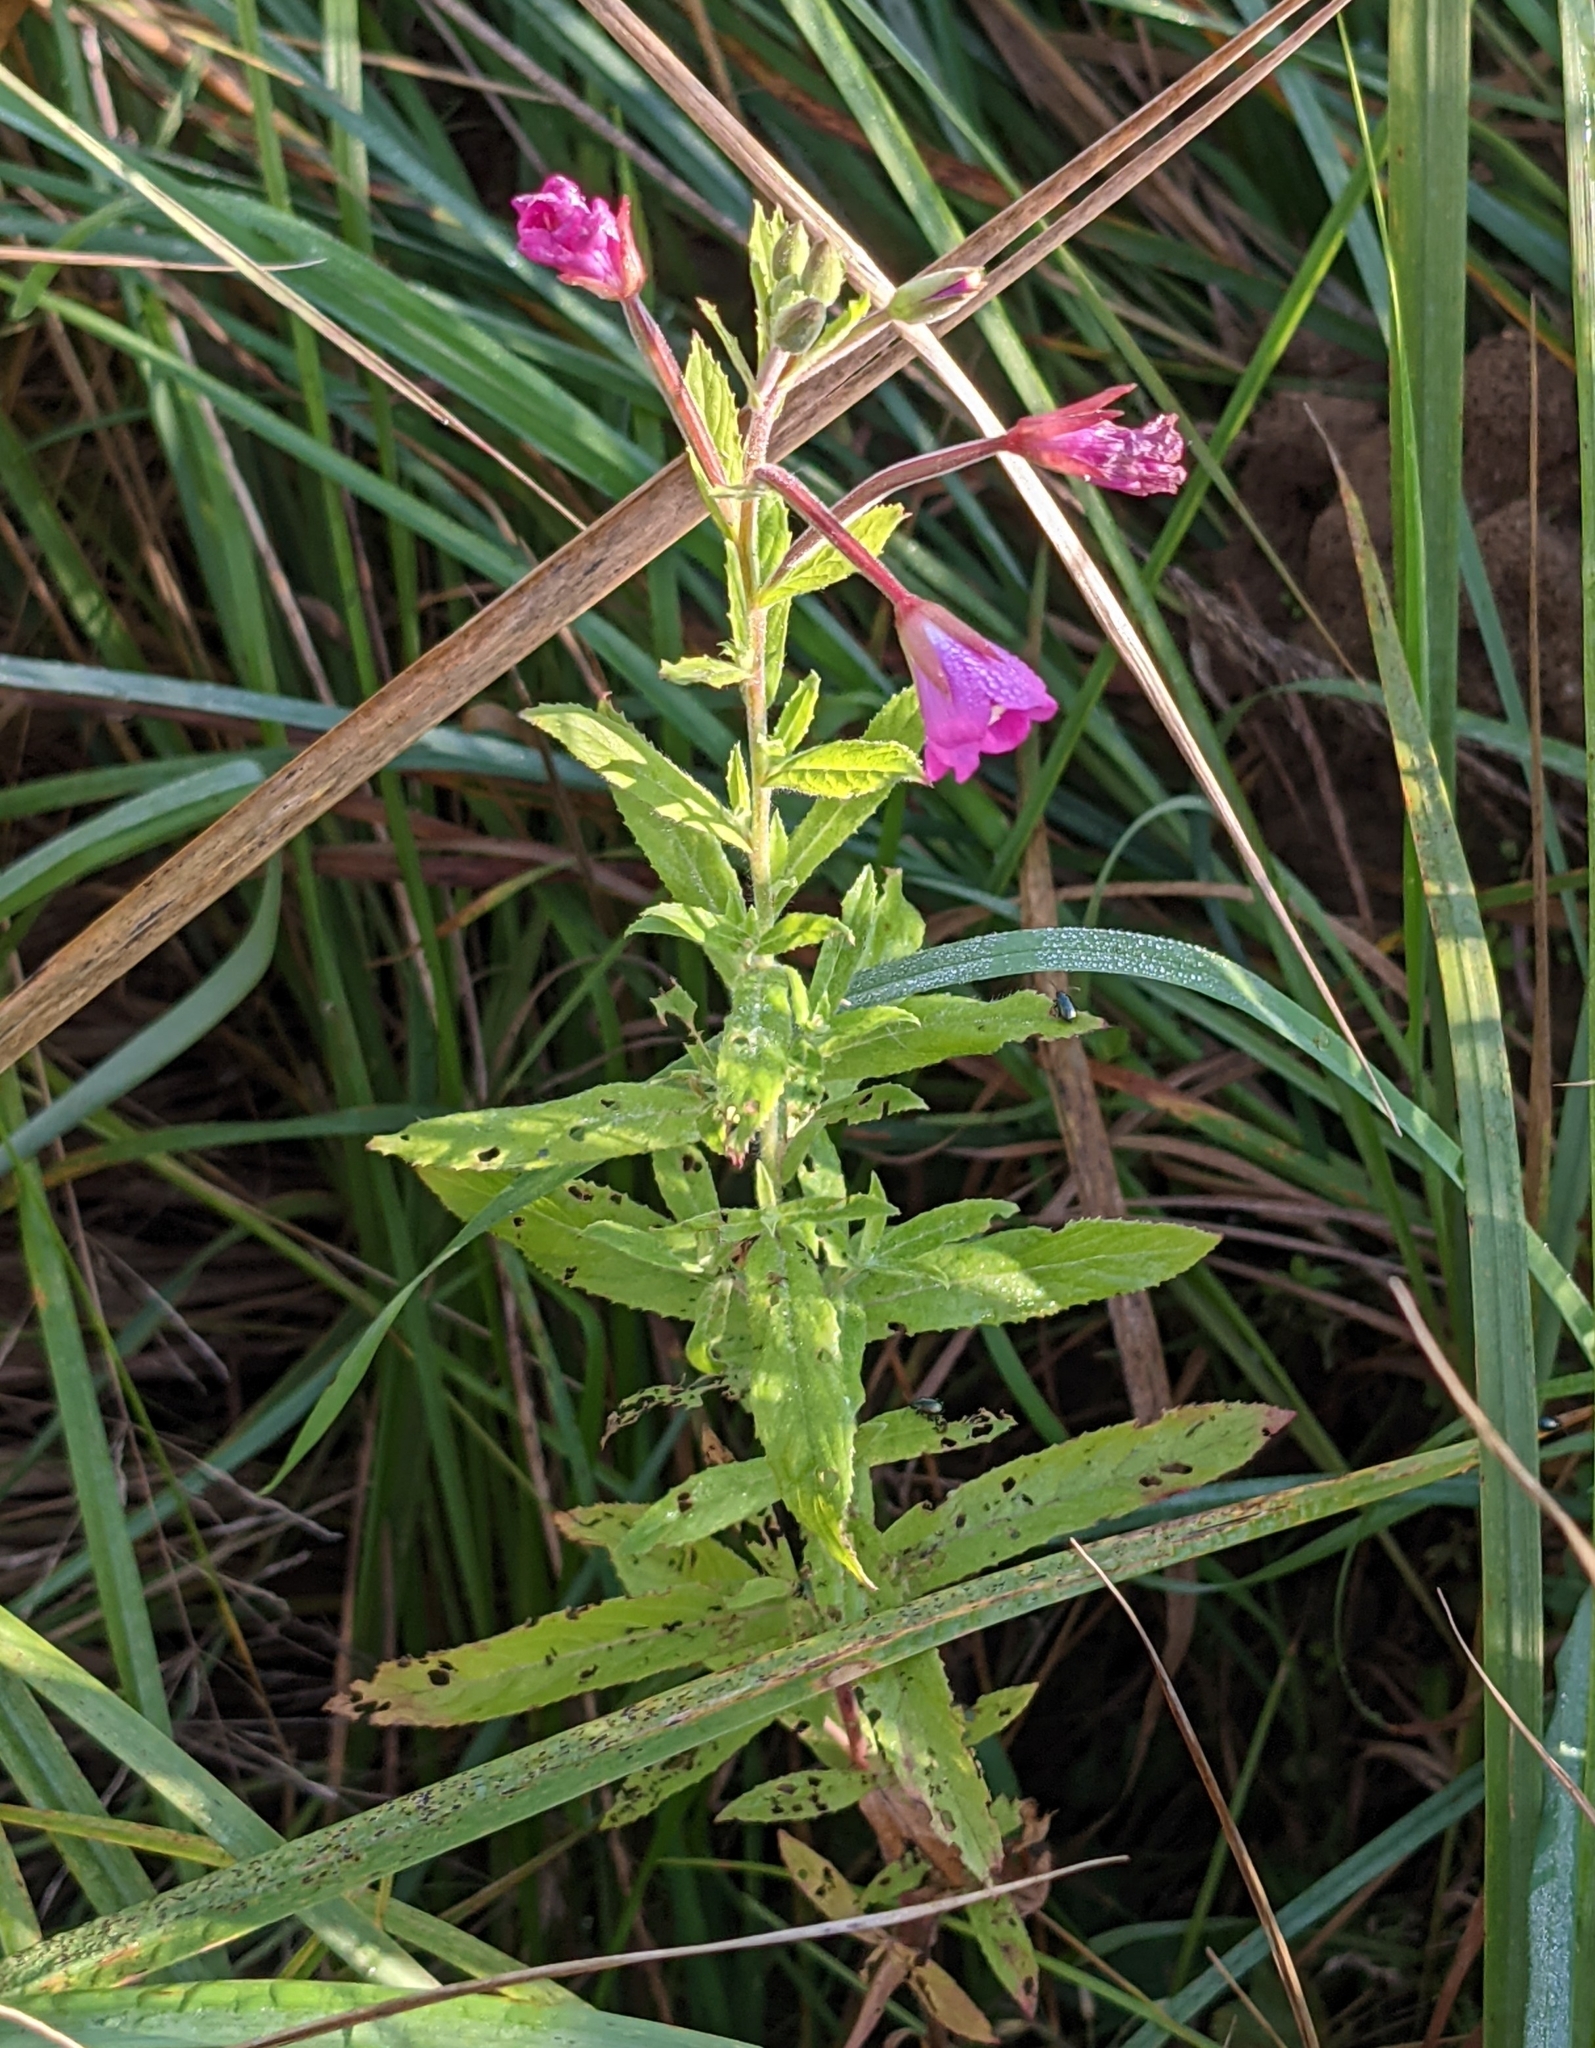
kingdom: Plantae
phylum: Tracheophyta
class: Magnoliopsida
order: Myrtales
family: Onagraceae
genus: Epilobium
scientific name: Epilobium hirsutum
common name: Great willowherb
